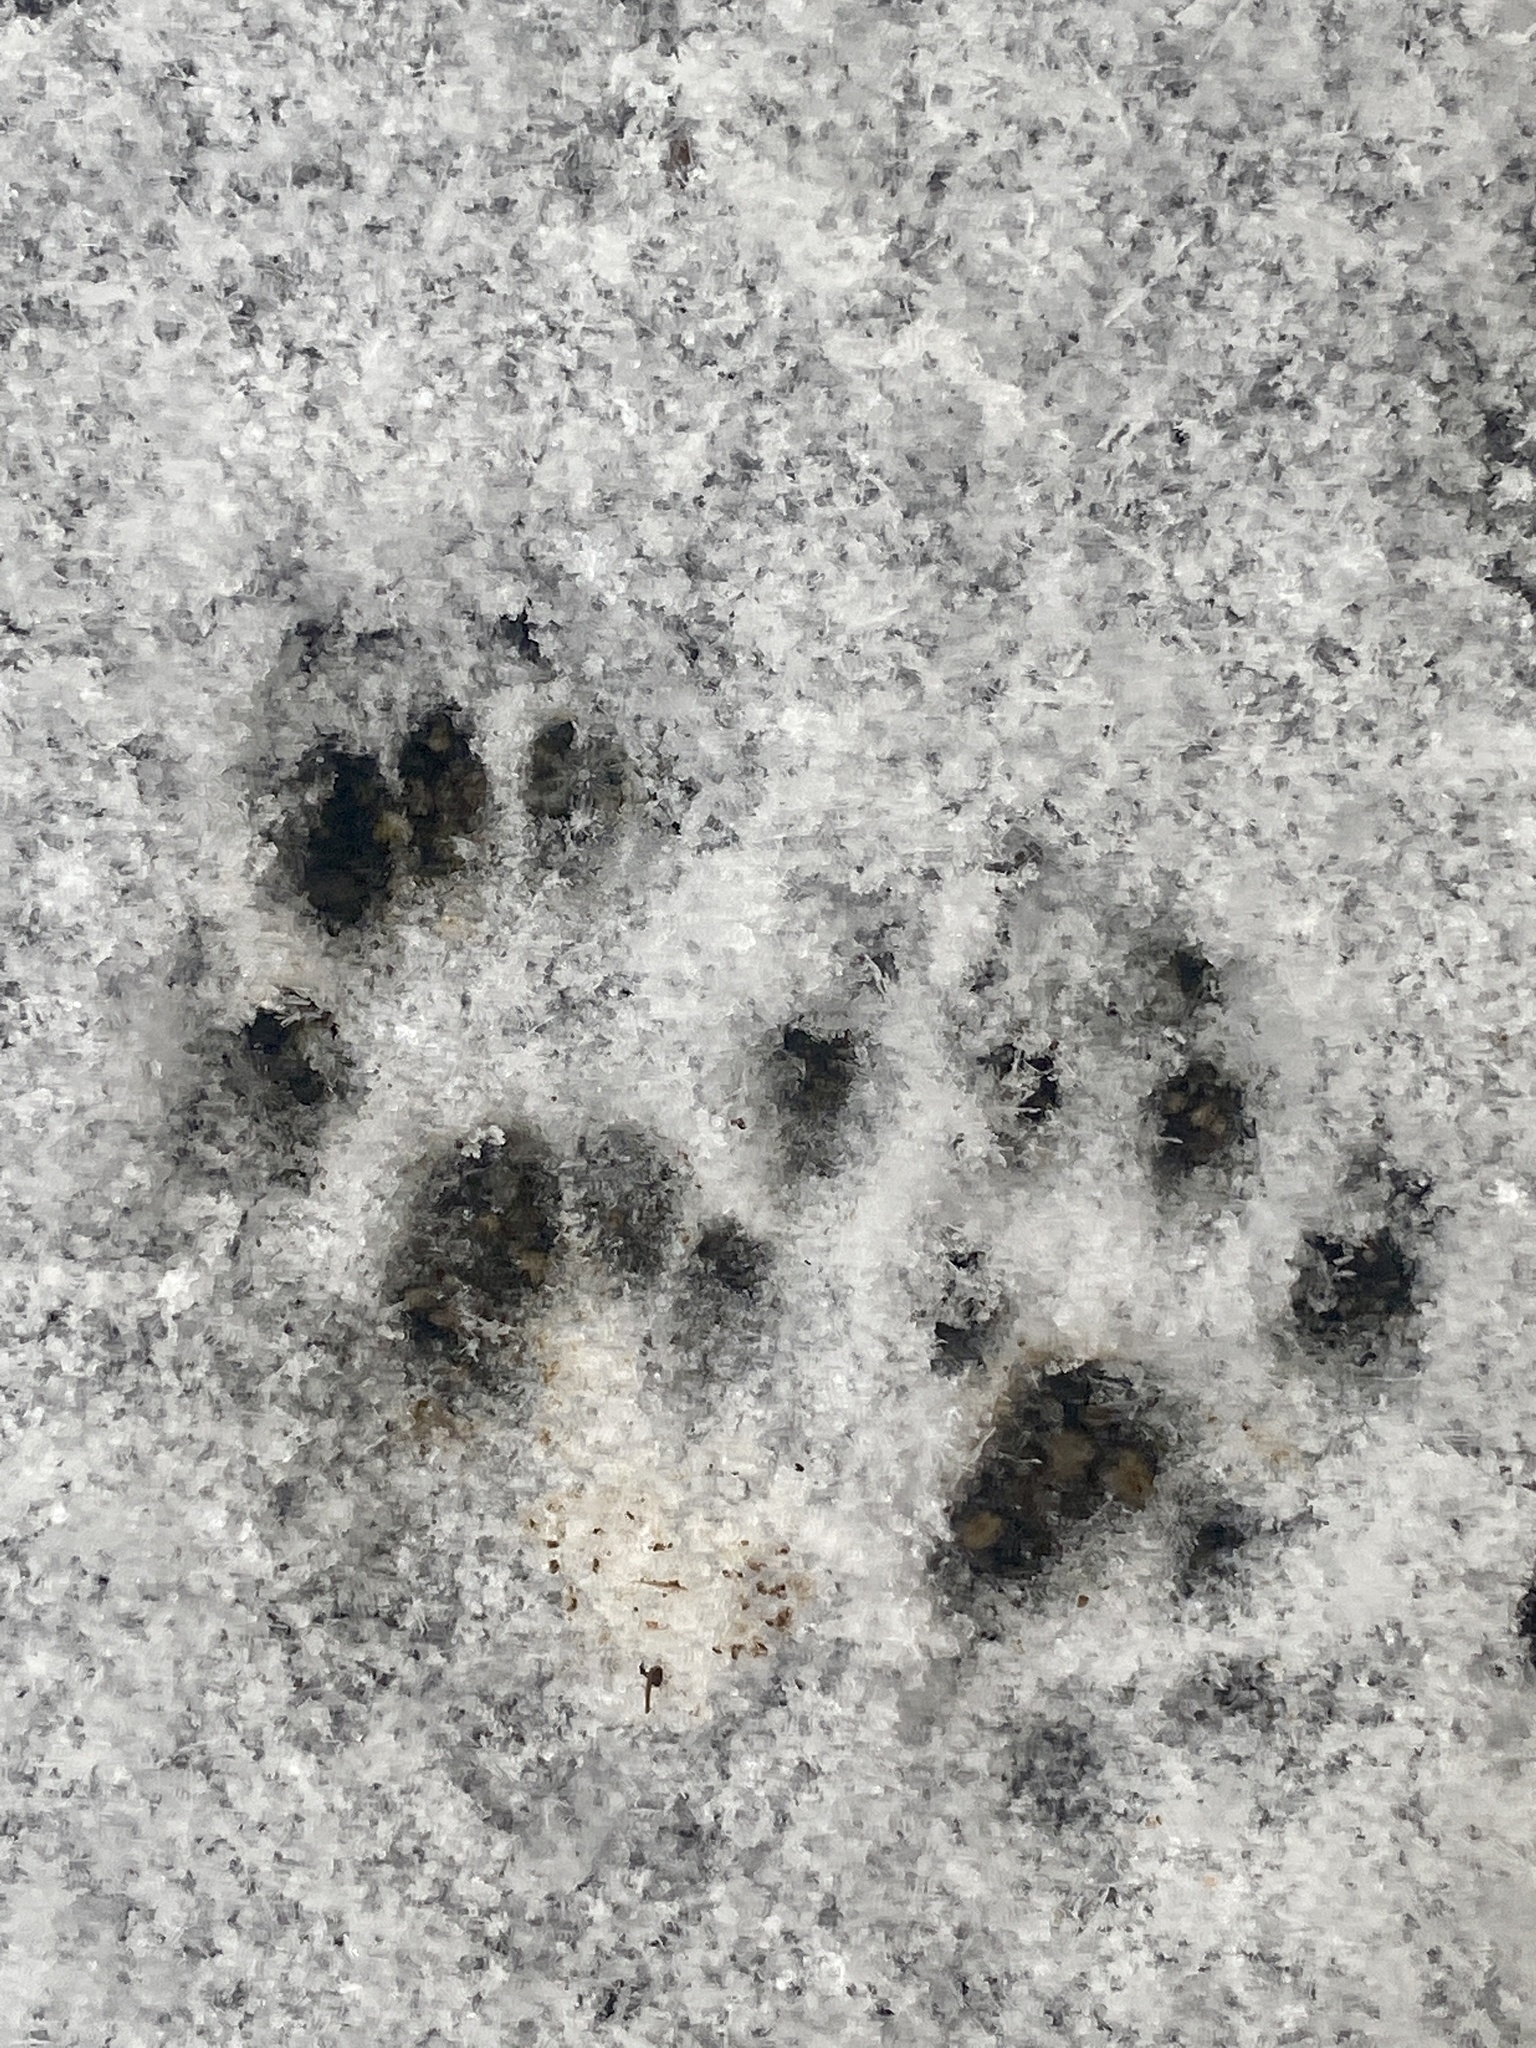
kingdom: Animalia
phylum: Chordata
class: Mammalia
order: Rodentia
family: Sciuridae
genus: Sciurus
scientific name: Sciurus carolinensis
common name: Eastern gray squirrel
